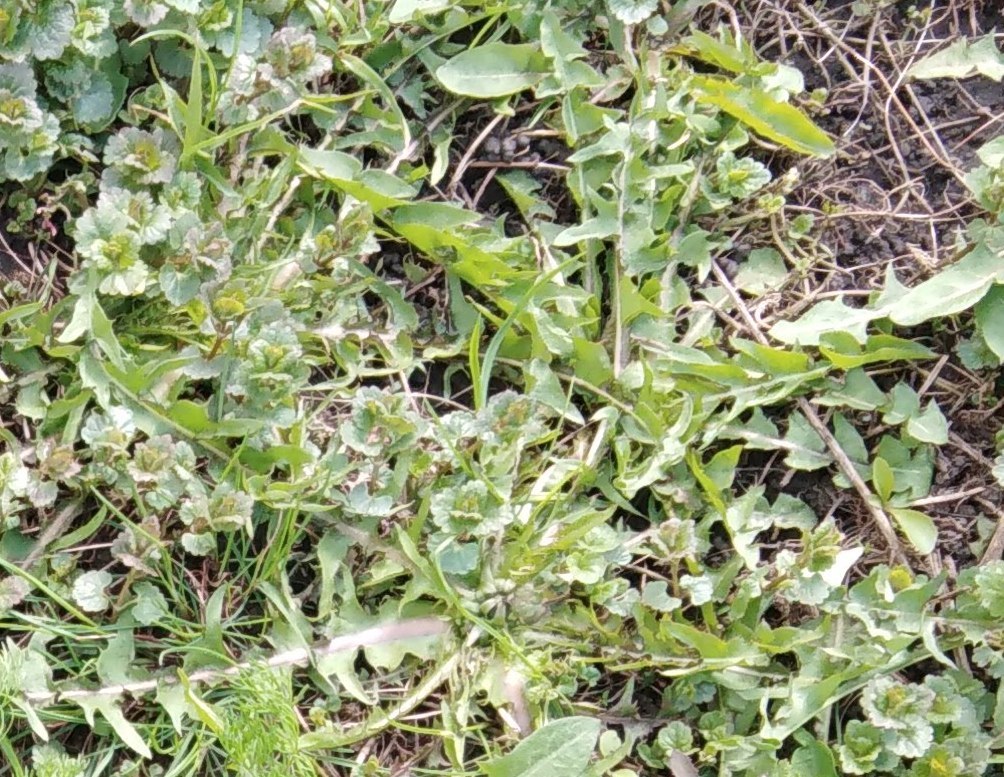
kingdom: Plantae
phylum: Tracheophyta
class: Magnoliopsida
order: Asterales
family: Asteraceae
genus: Taraxacum
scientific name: Taraxacum officinale
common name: Common dandelion
